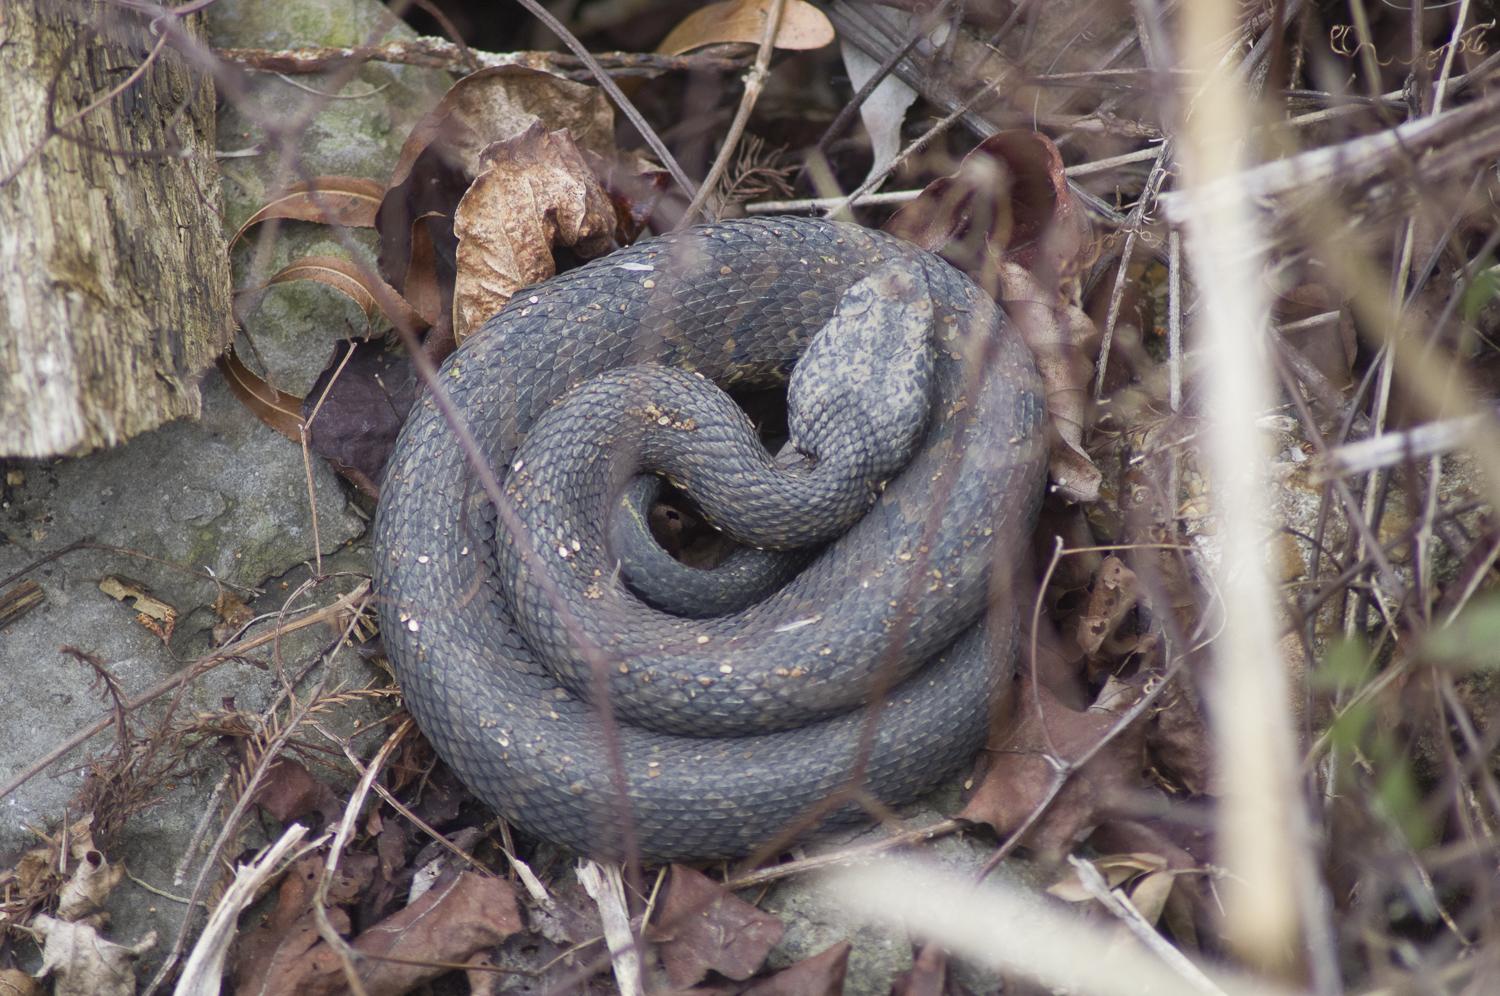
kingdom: Animalia
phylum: Chordata
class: Squamata
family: Viperidae
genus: Agkistrodon
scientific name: Agkistrodon piscivorus
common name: Cottonmouth
